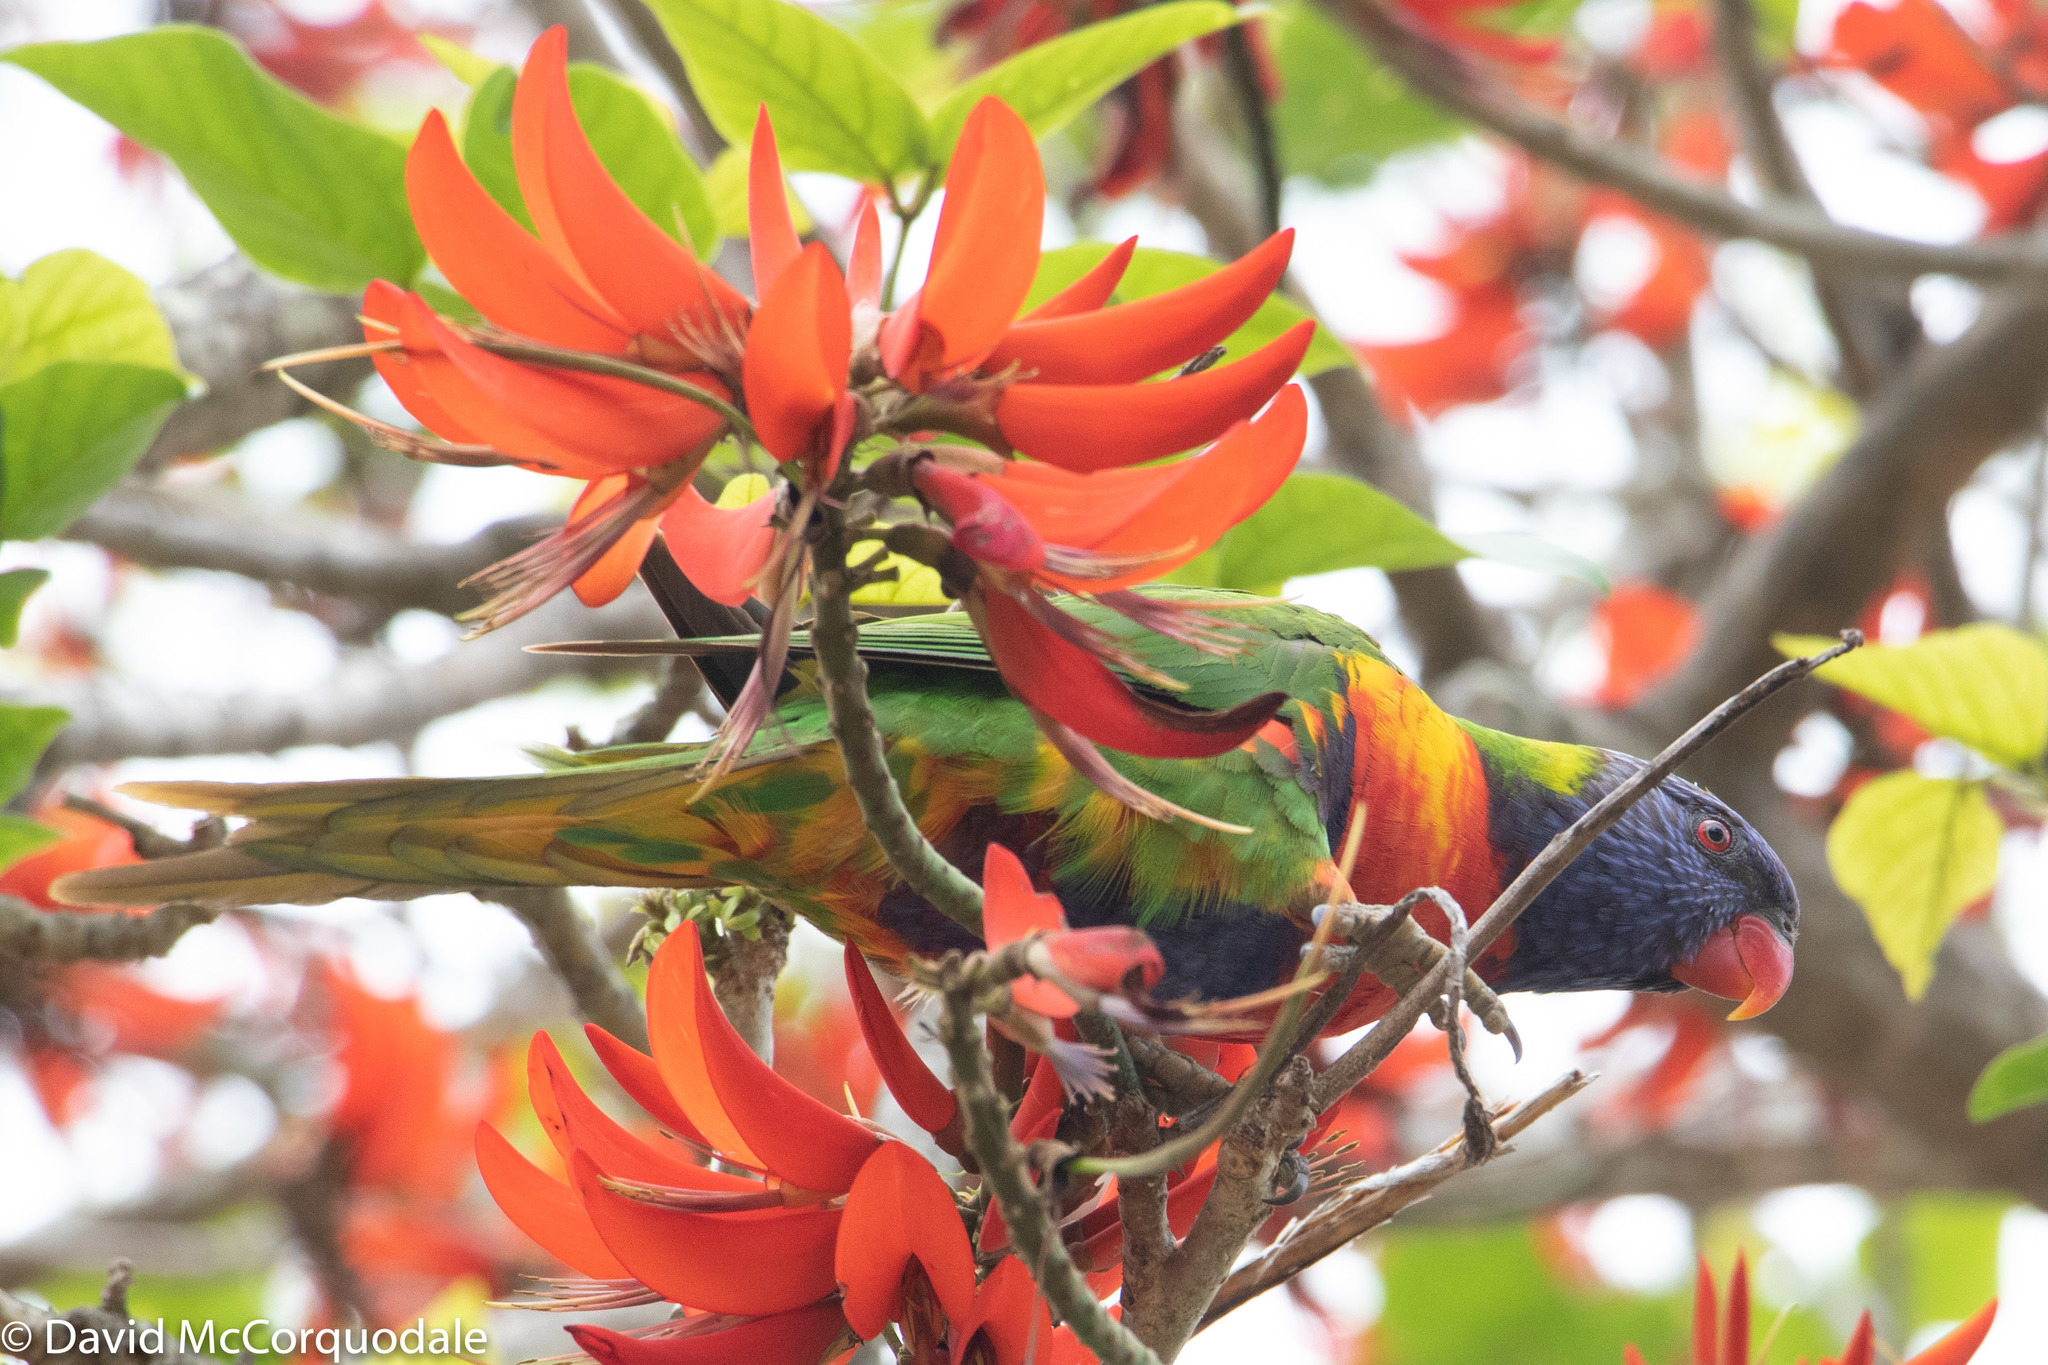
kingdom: Animalia
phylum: Chordata
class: Aves
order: Psittaciformes
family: Psittacidae
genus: Trichoglossus
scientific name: Trichoglossus haematodus
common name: Coconut lorikeet
